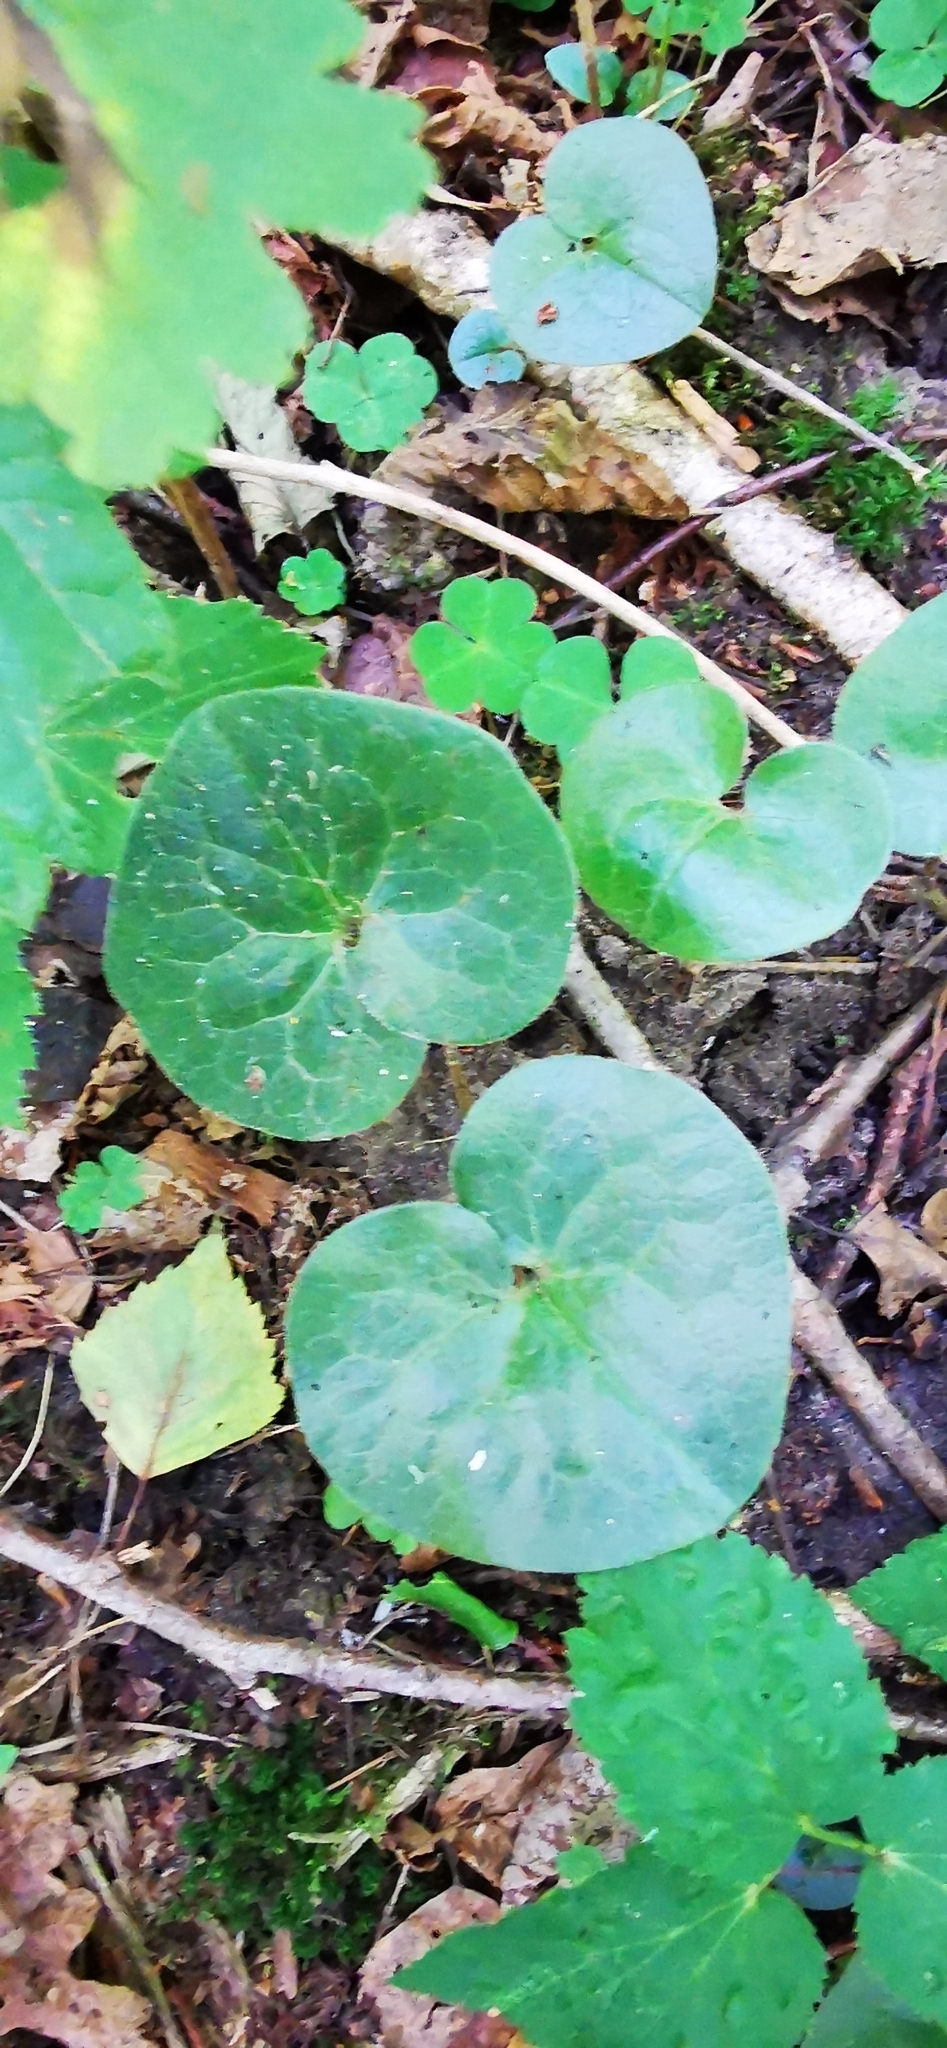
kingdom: Plantae
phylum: Tracheophyta
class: Magnoliopsida
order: Piperales
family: Aristolochiaceae
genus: Asarum
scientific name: Asarum europaeum
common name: Asarabacca
